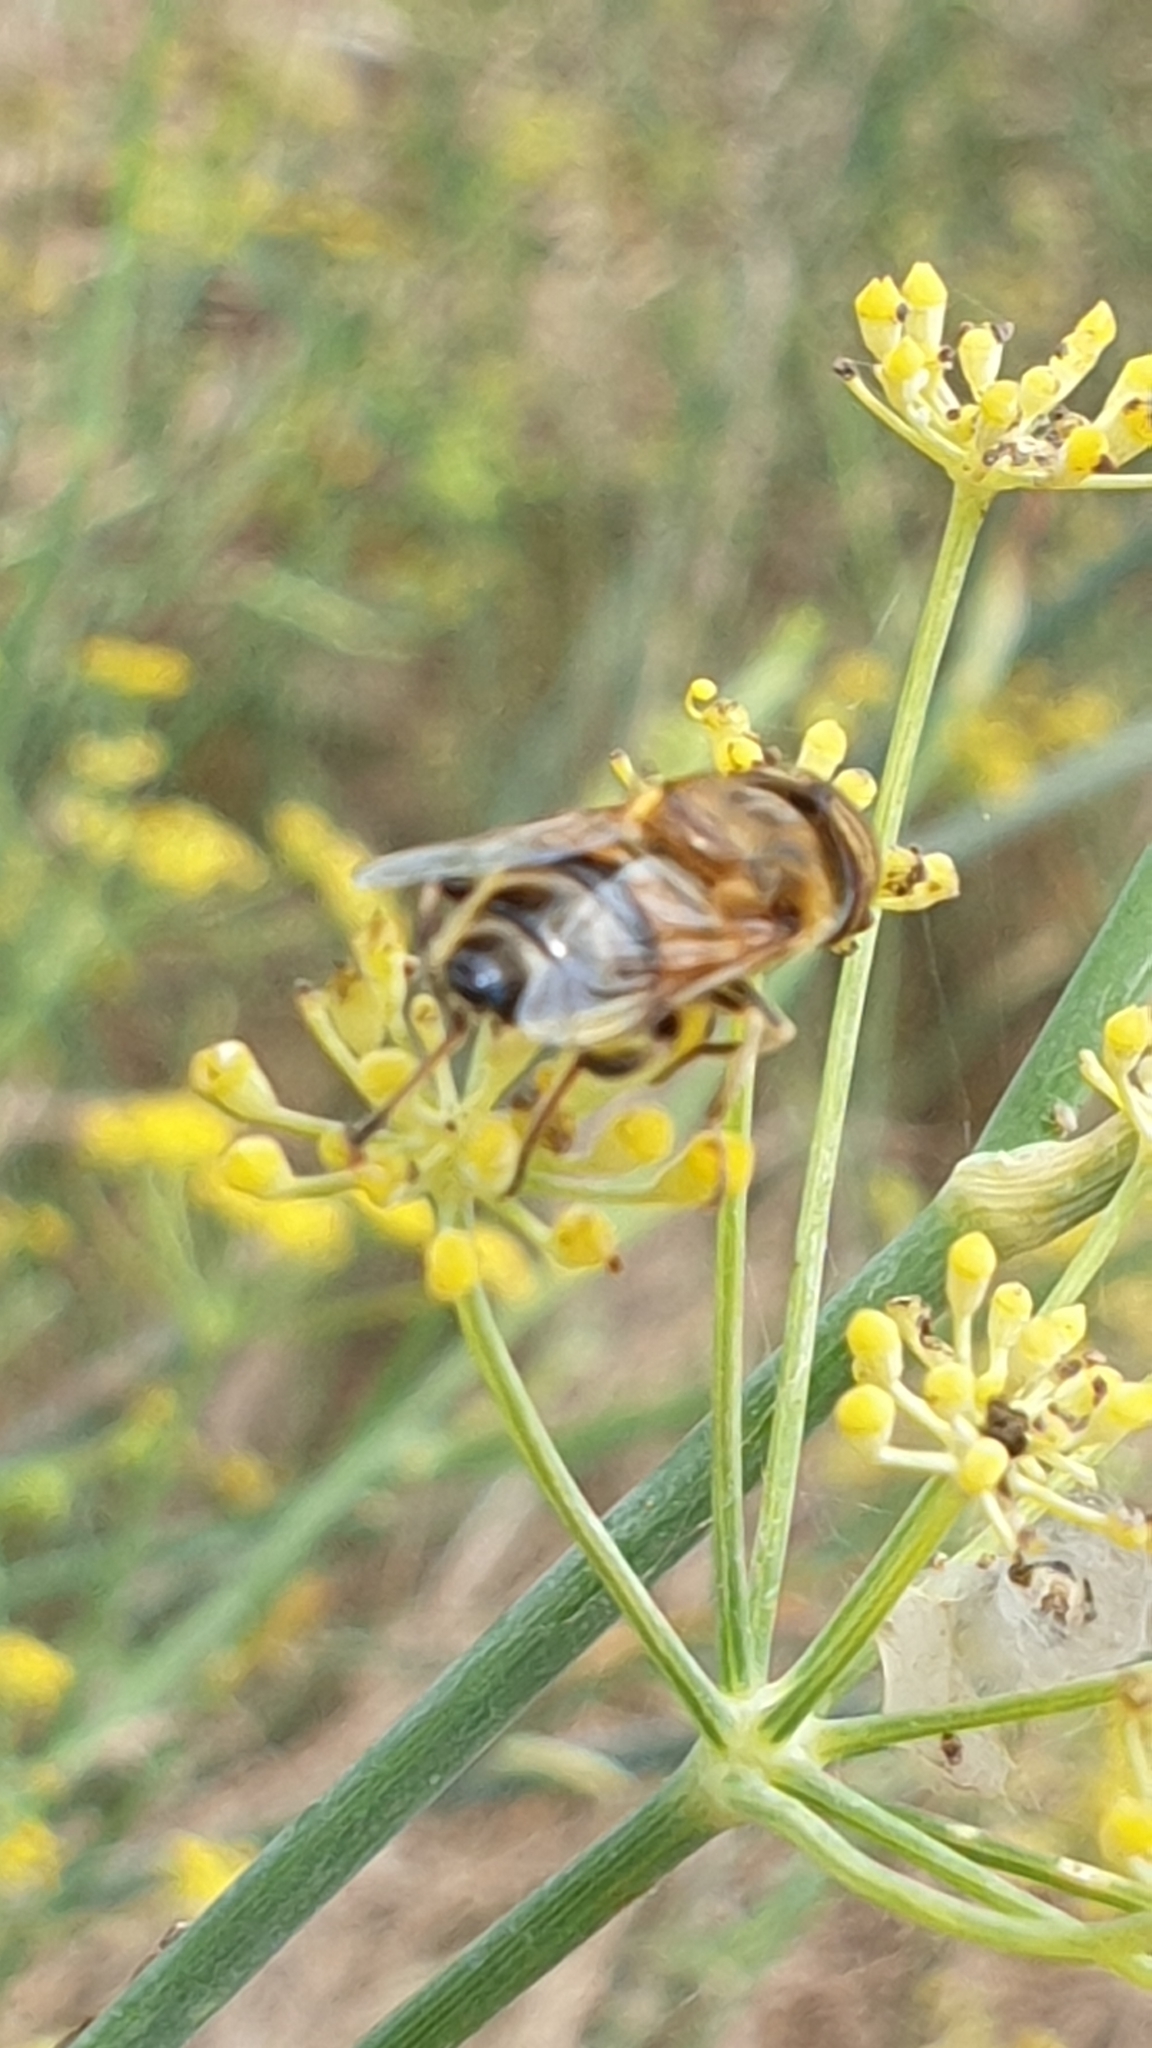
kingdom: Animalia
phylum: Arthropoda
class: Insecta
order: Diptera
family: Syrphidae
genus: Eristalinus
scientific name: Eristalinus taeniops
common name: Syrphid fly
